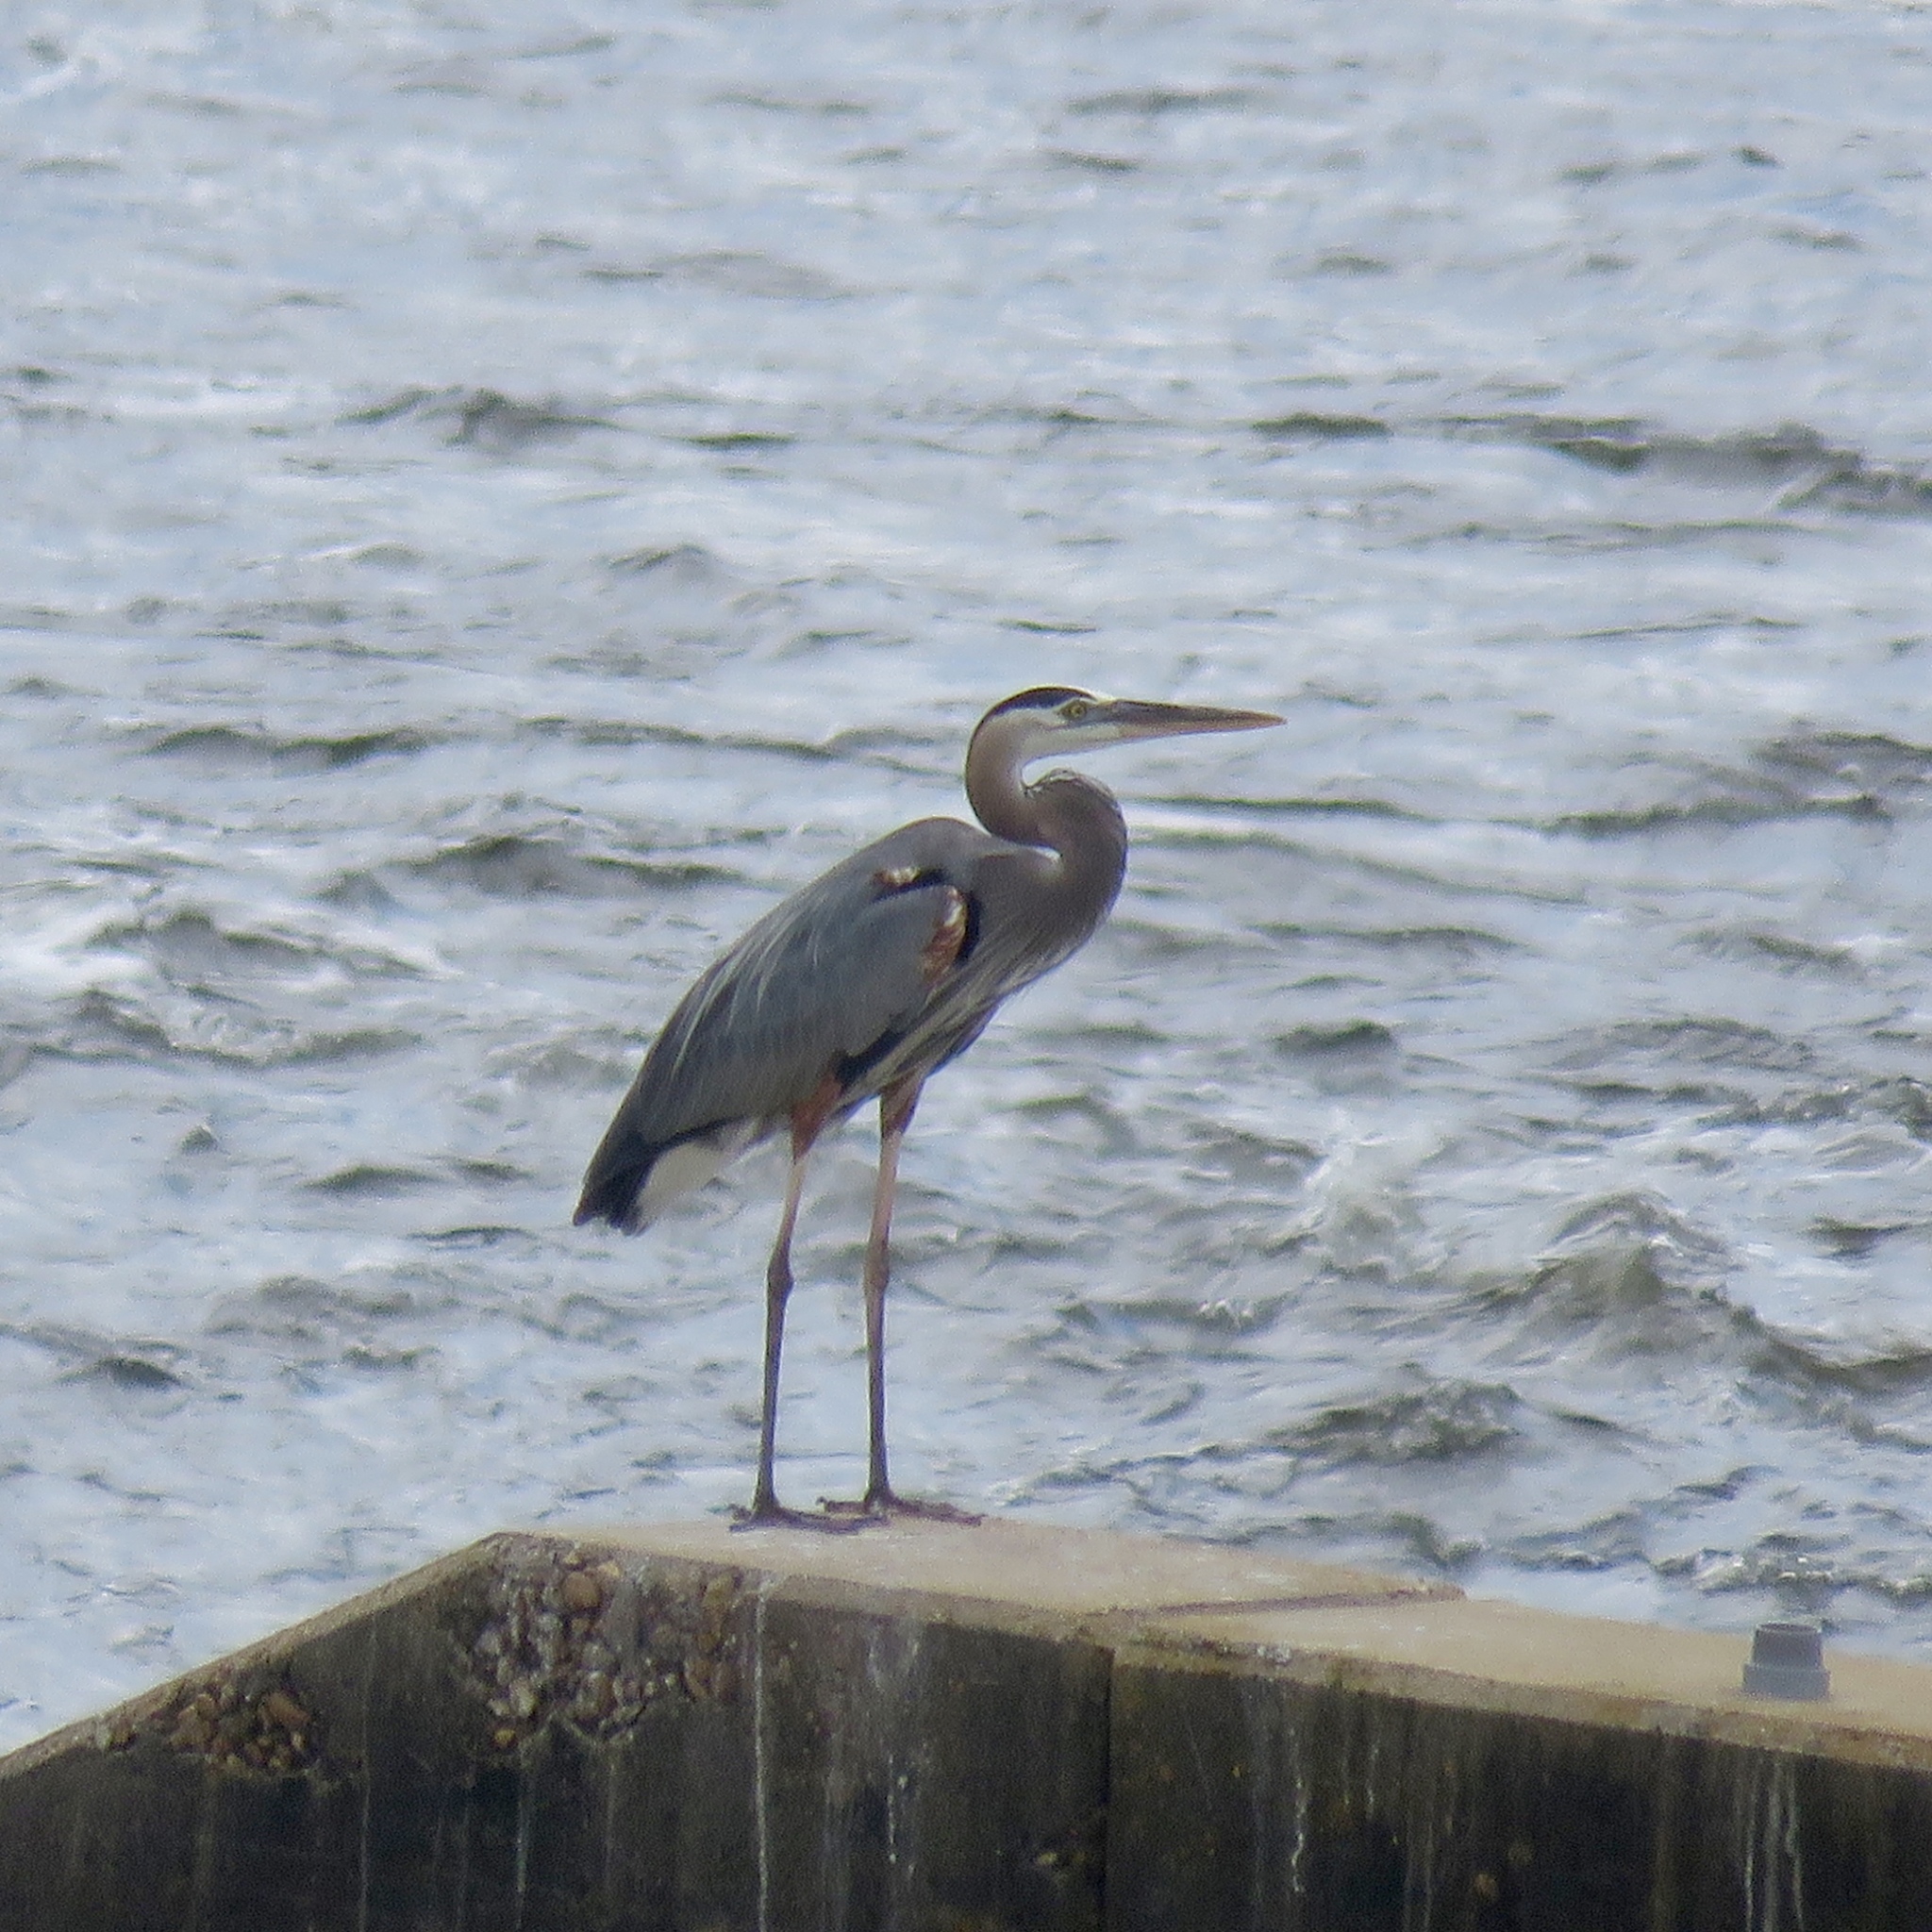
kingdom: Animalia
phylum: Chordata
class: Aves
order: Pelecaniformes
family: Ardeidae
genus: Ardea
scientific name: Ardea herodias
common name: Great blue heron
